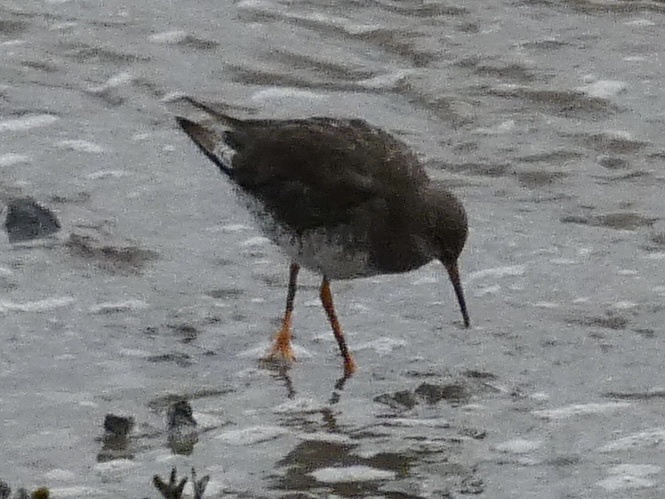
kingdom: Animalia
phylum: Chordata
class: Aves
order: Charadriiformes
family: Scolopacidae
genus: Tringa
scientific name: Tringa totanus
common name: Common redshank
